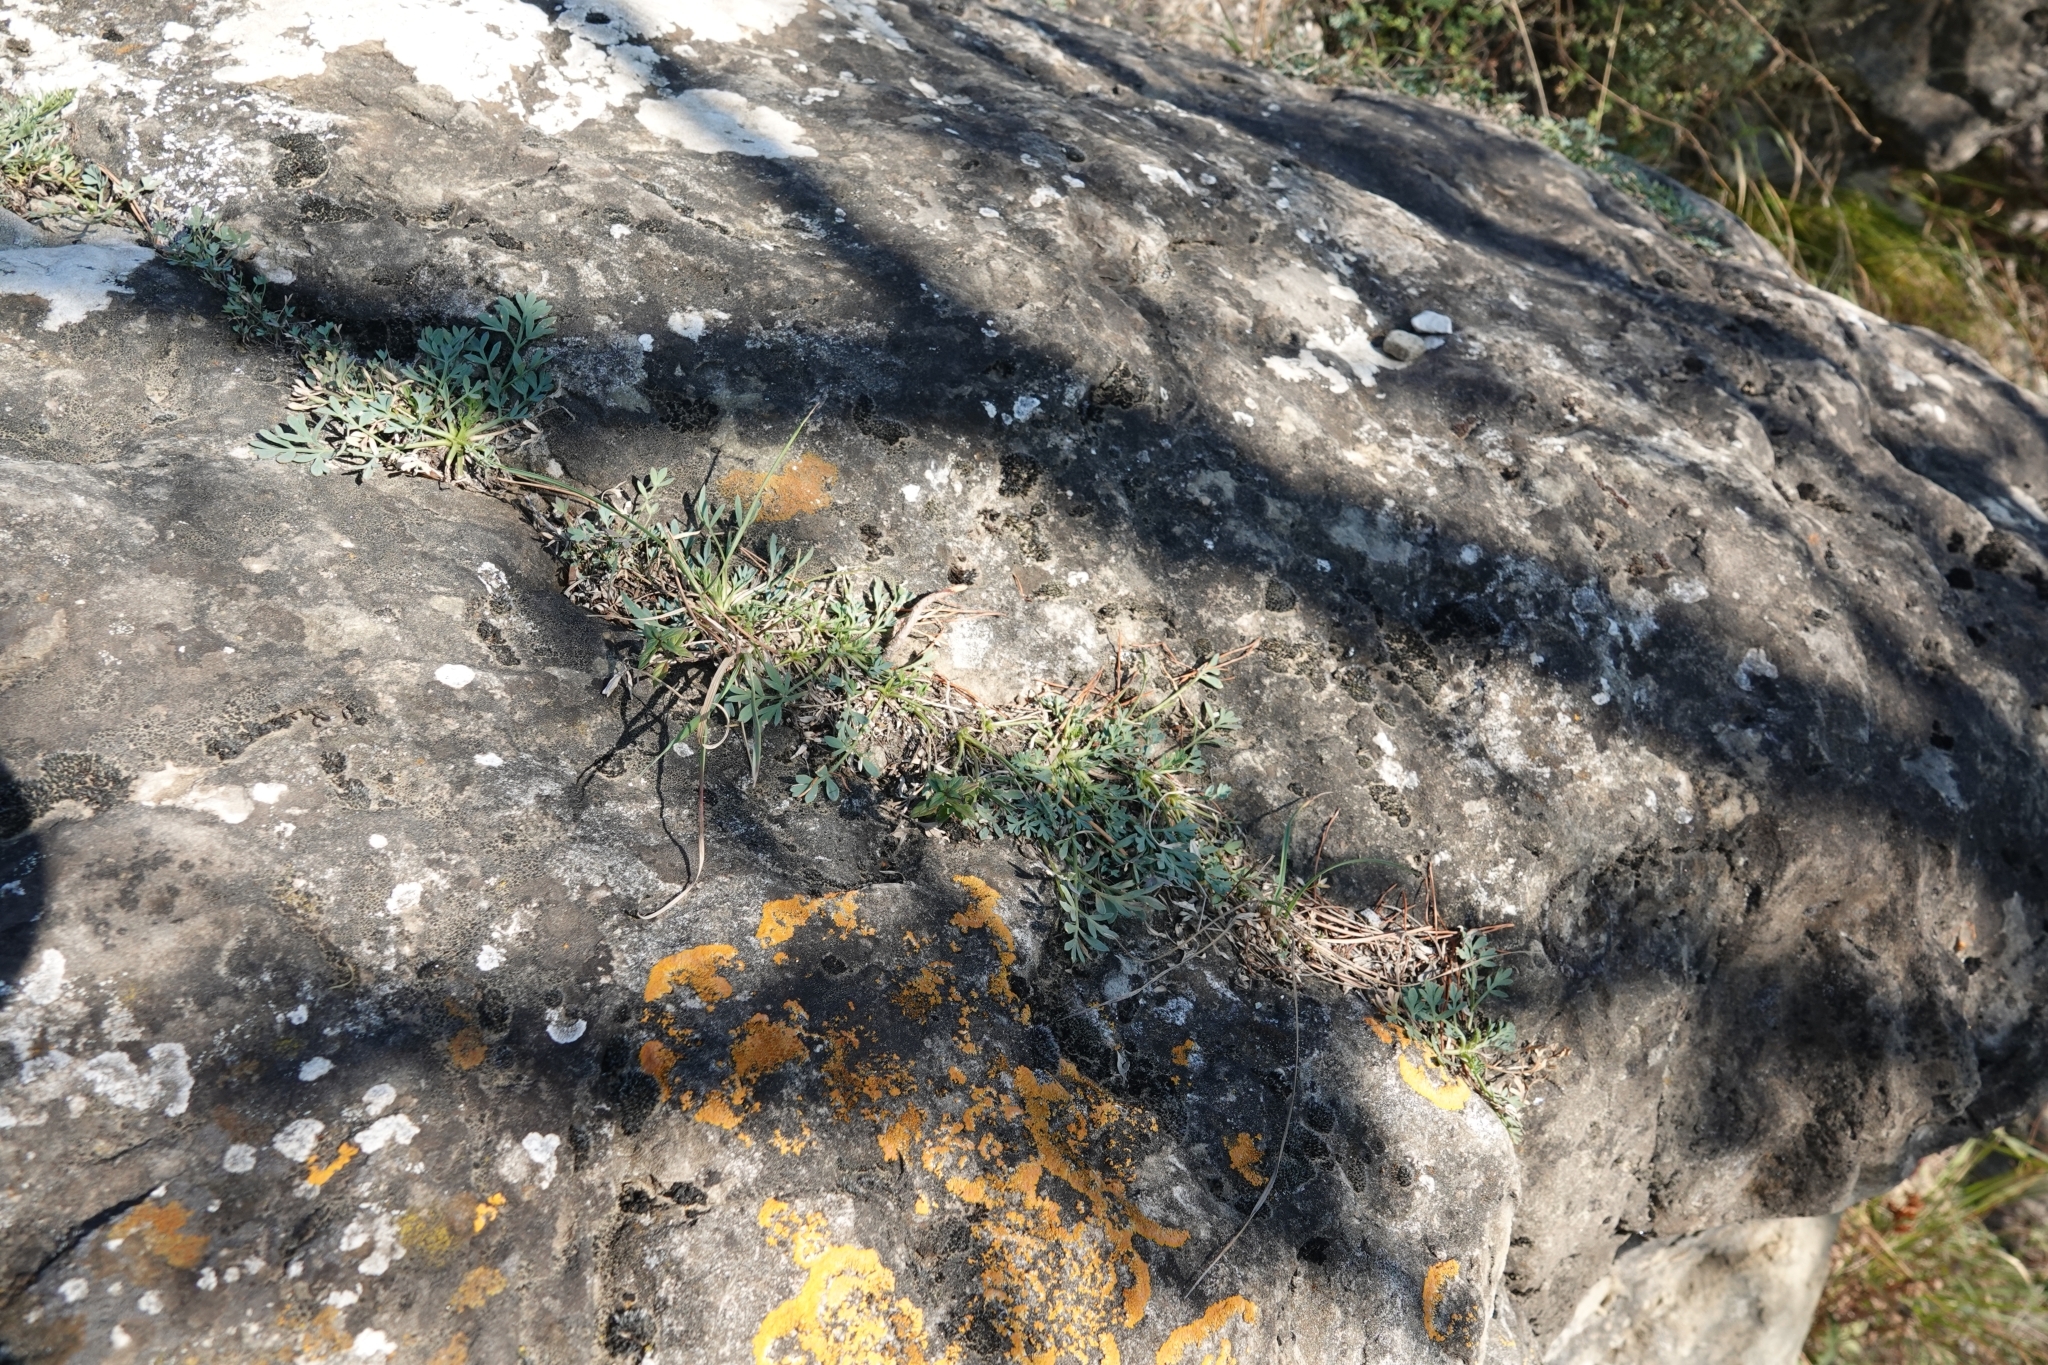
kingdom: Plantae
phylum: Tracheophyta
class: Magnoliopsida
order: Apiales
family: Apiaceae
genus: Hippomarathrum
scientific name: Hippomarathrum petraeum
